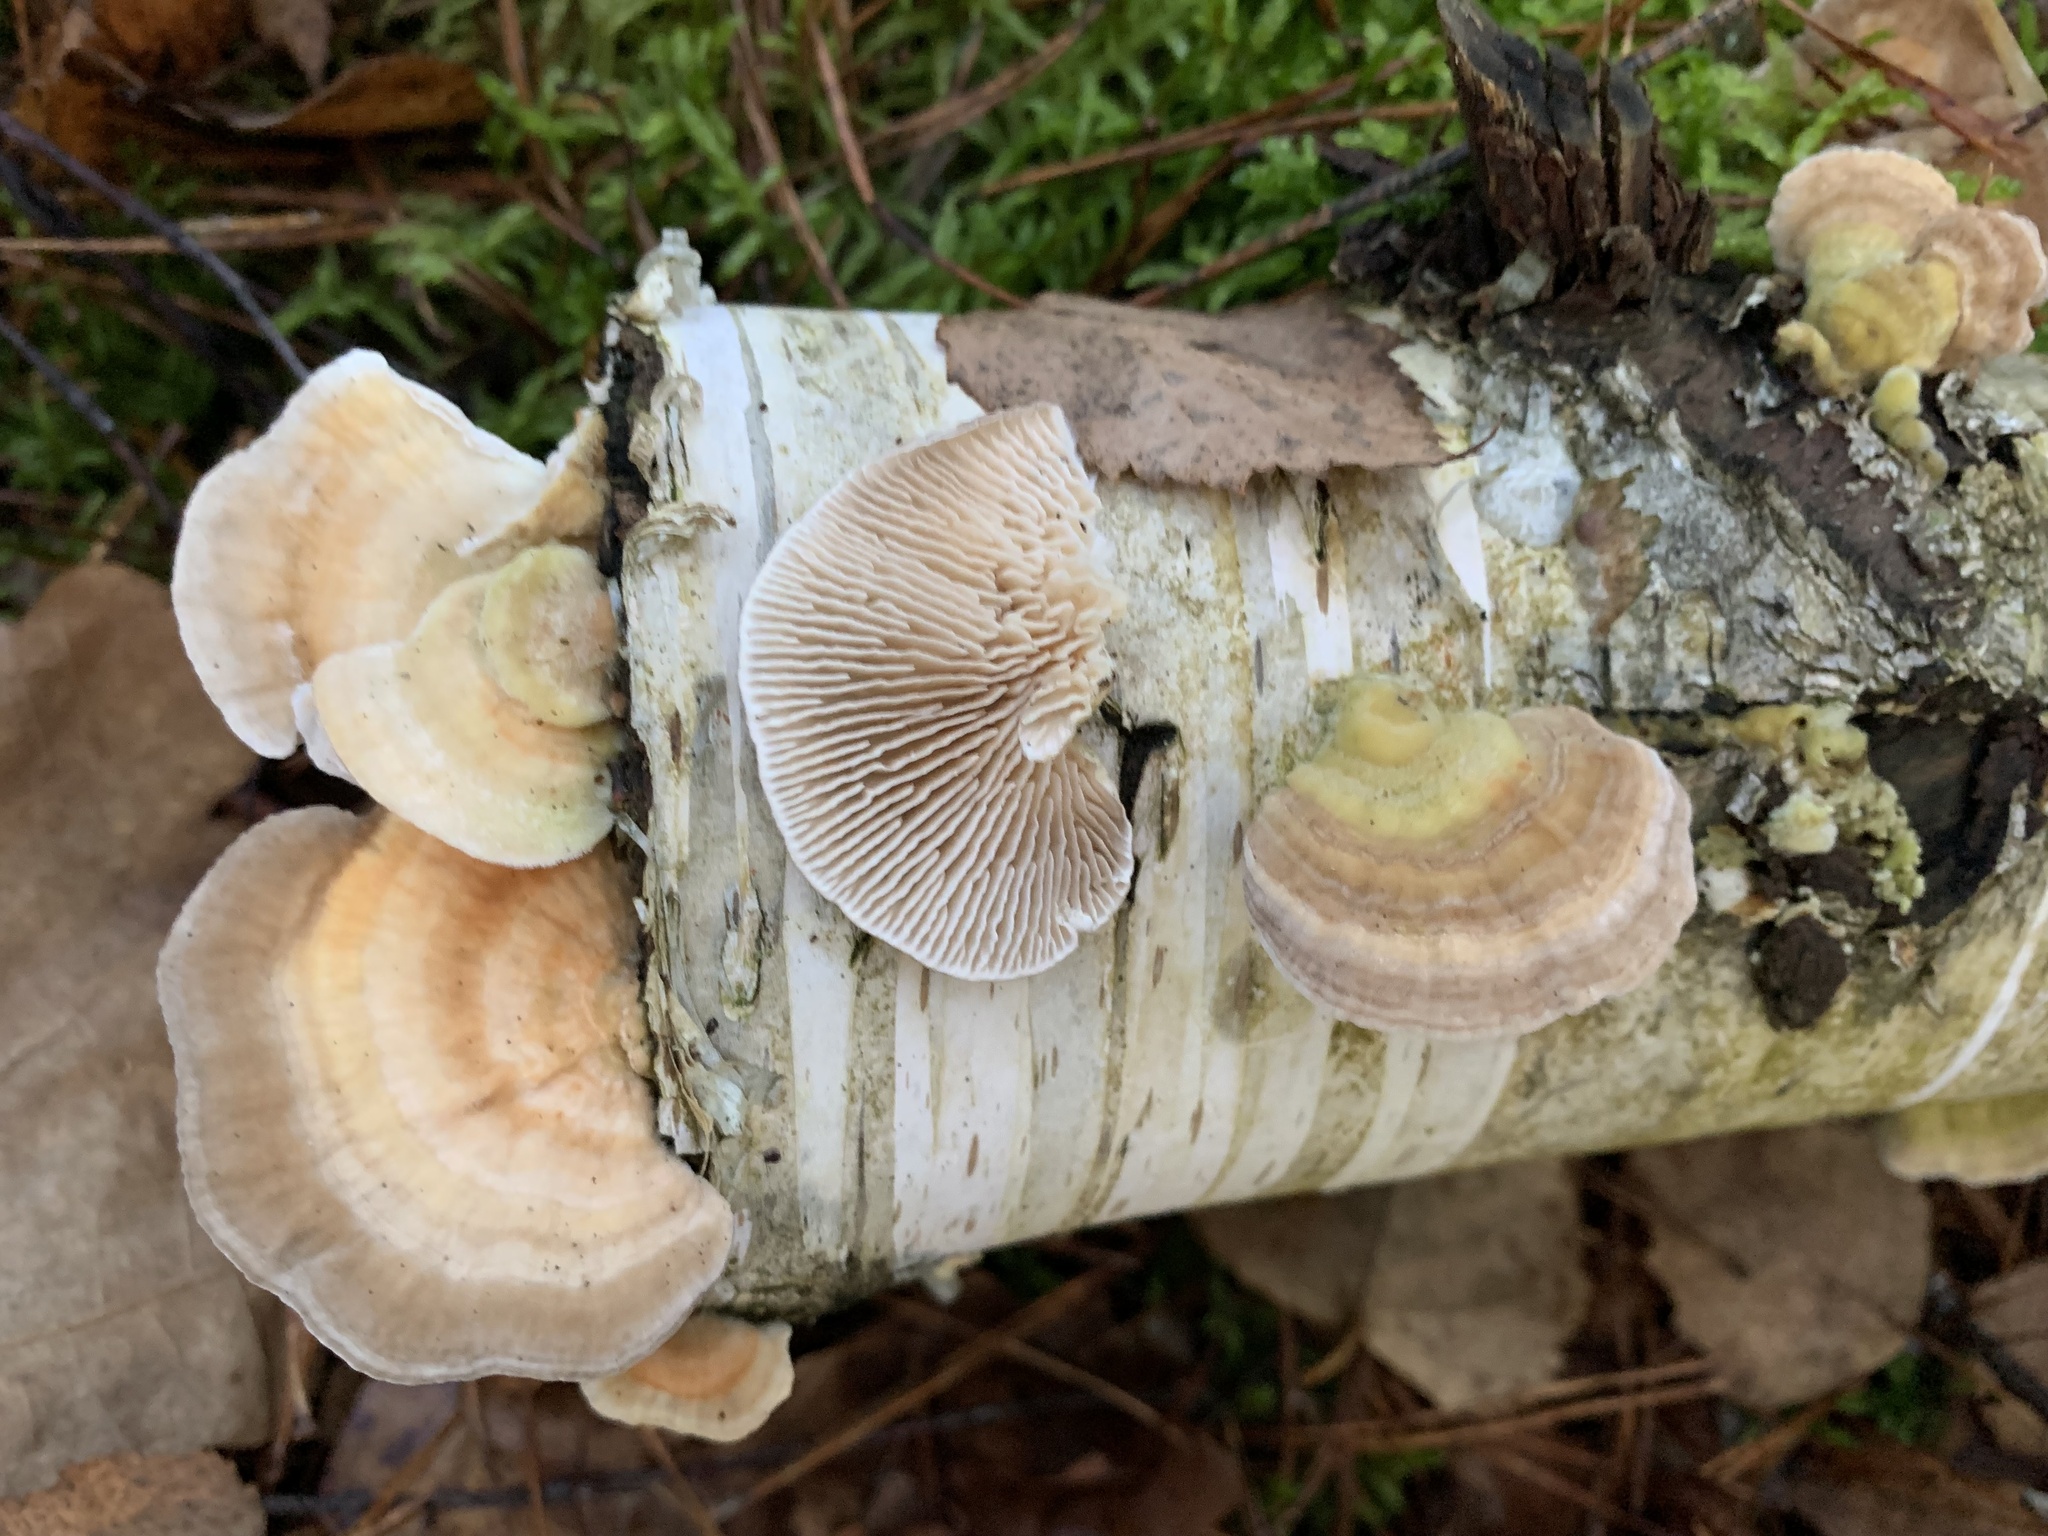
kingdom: Fungi
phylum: Basidiomycota
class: Agaricomycetes
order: Polyporales
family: Polyporaceae
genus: Lenzites
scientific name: Lenzites betulinus
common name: Birch mazegill
